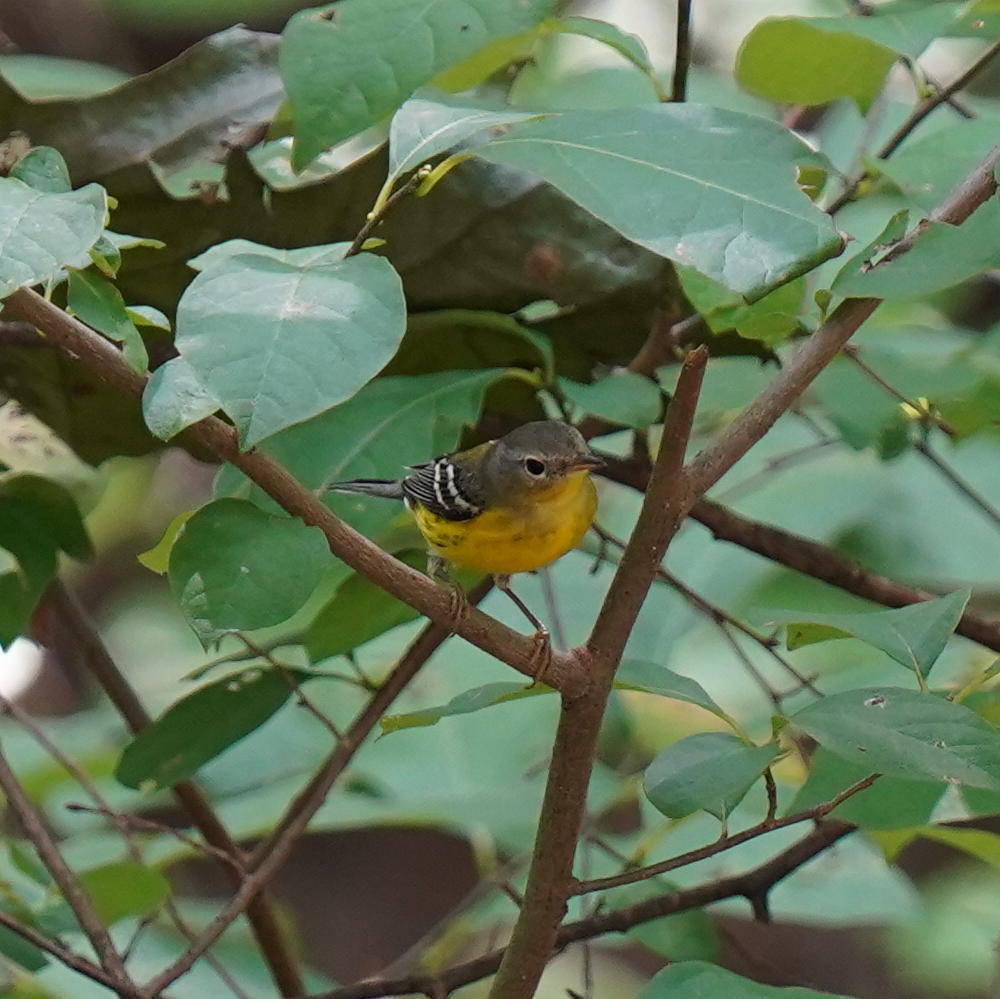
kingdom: Animalia
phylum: Chordata
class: Aves
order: Passeriformes
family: Parulidae
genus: Setophaga
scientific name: Setophaga magnolia
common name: Magnolia warbler
